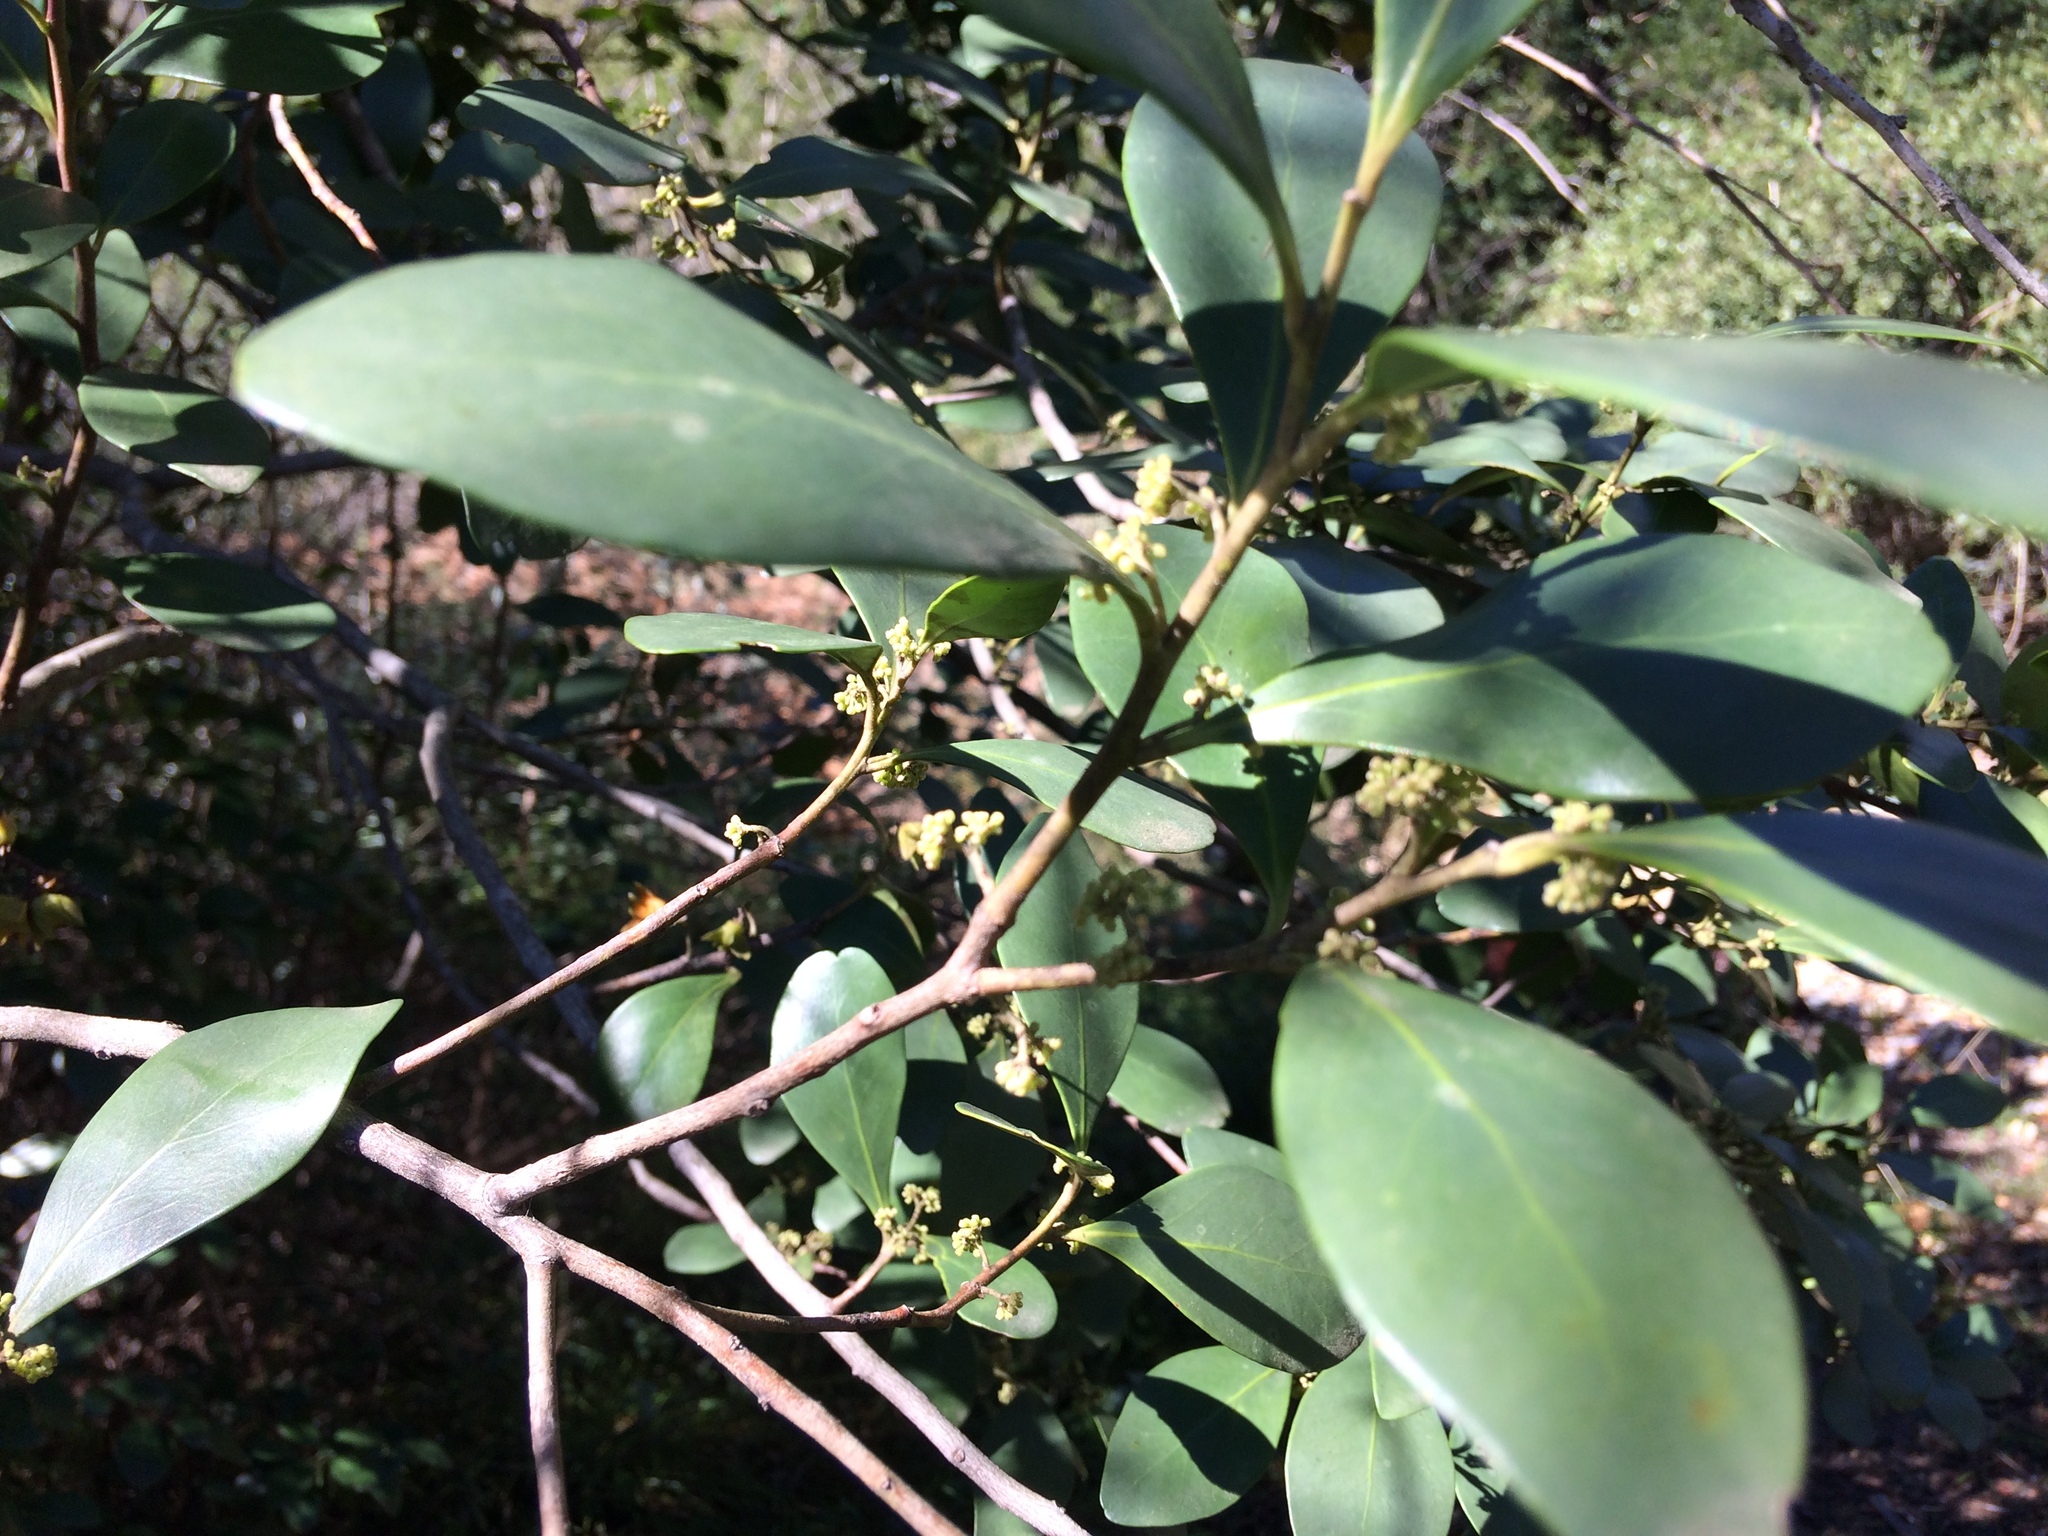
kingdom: Plantae
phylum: Tracheophyta
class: Magnoliopsida
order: Celastrales
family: Celastraceae
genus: Pterocelastrus
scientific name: Pterocelastrus tricuspidatus
